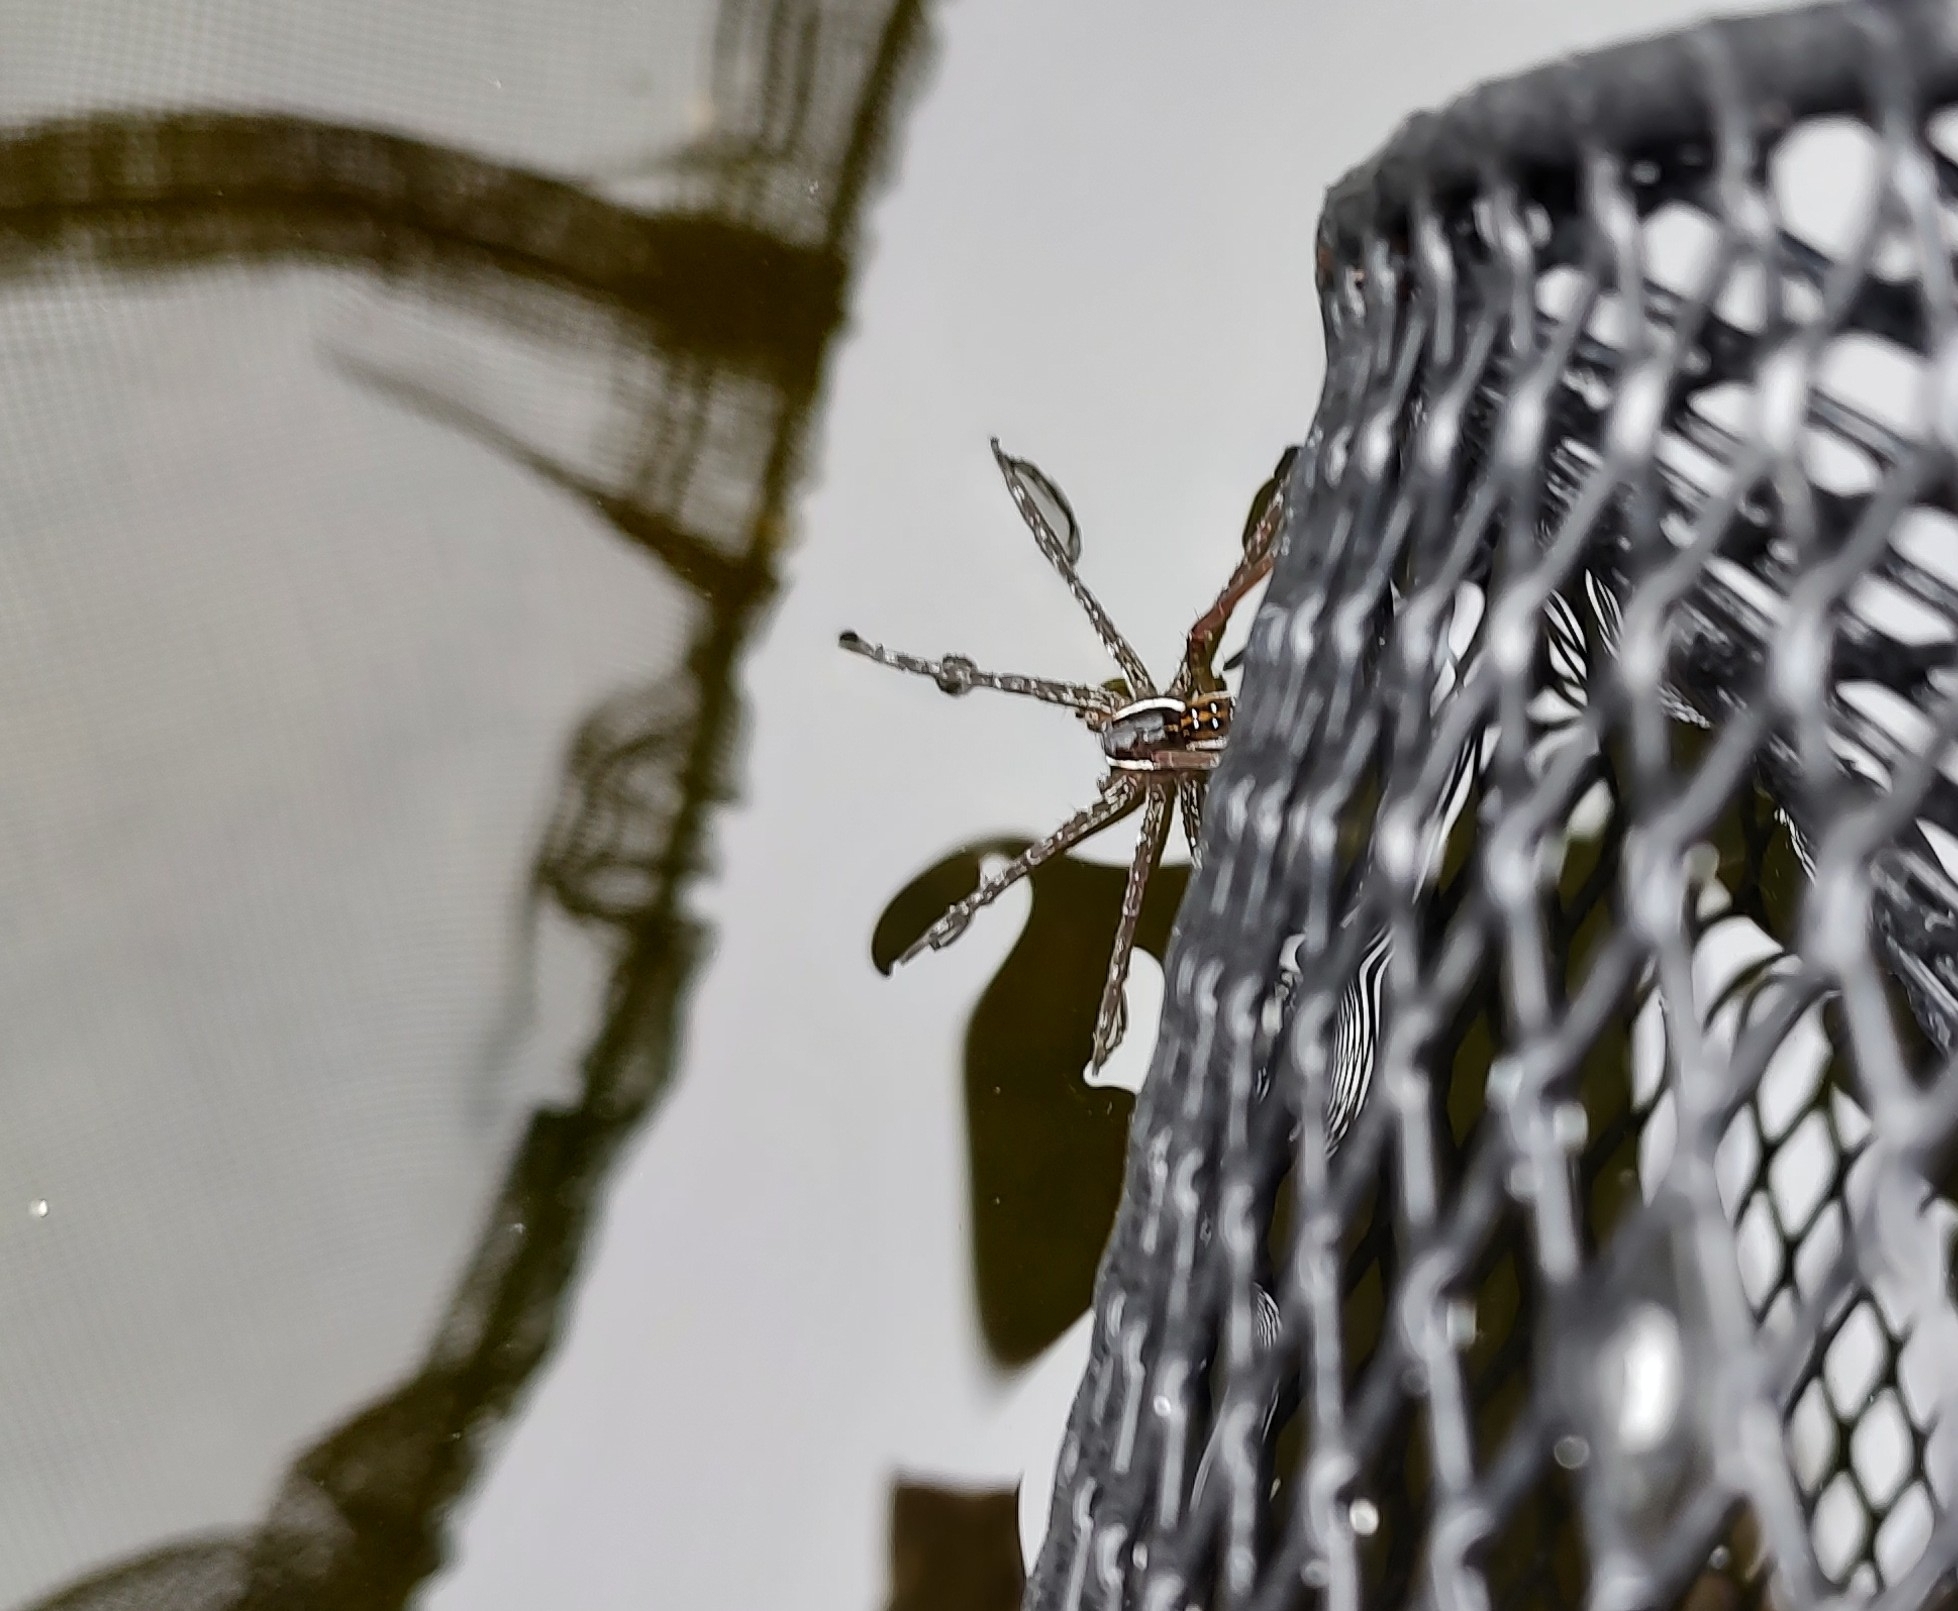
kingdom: Animalia
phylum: Arthropoda
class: Arachnida
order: Araneae
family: Pisauridae
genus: Dolomedes
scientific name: Dolomedes triton
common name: Six-spotted fishing spider
